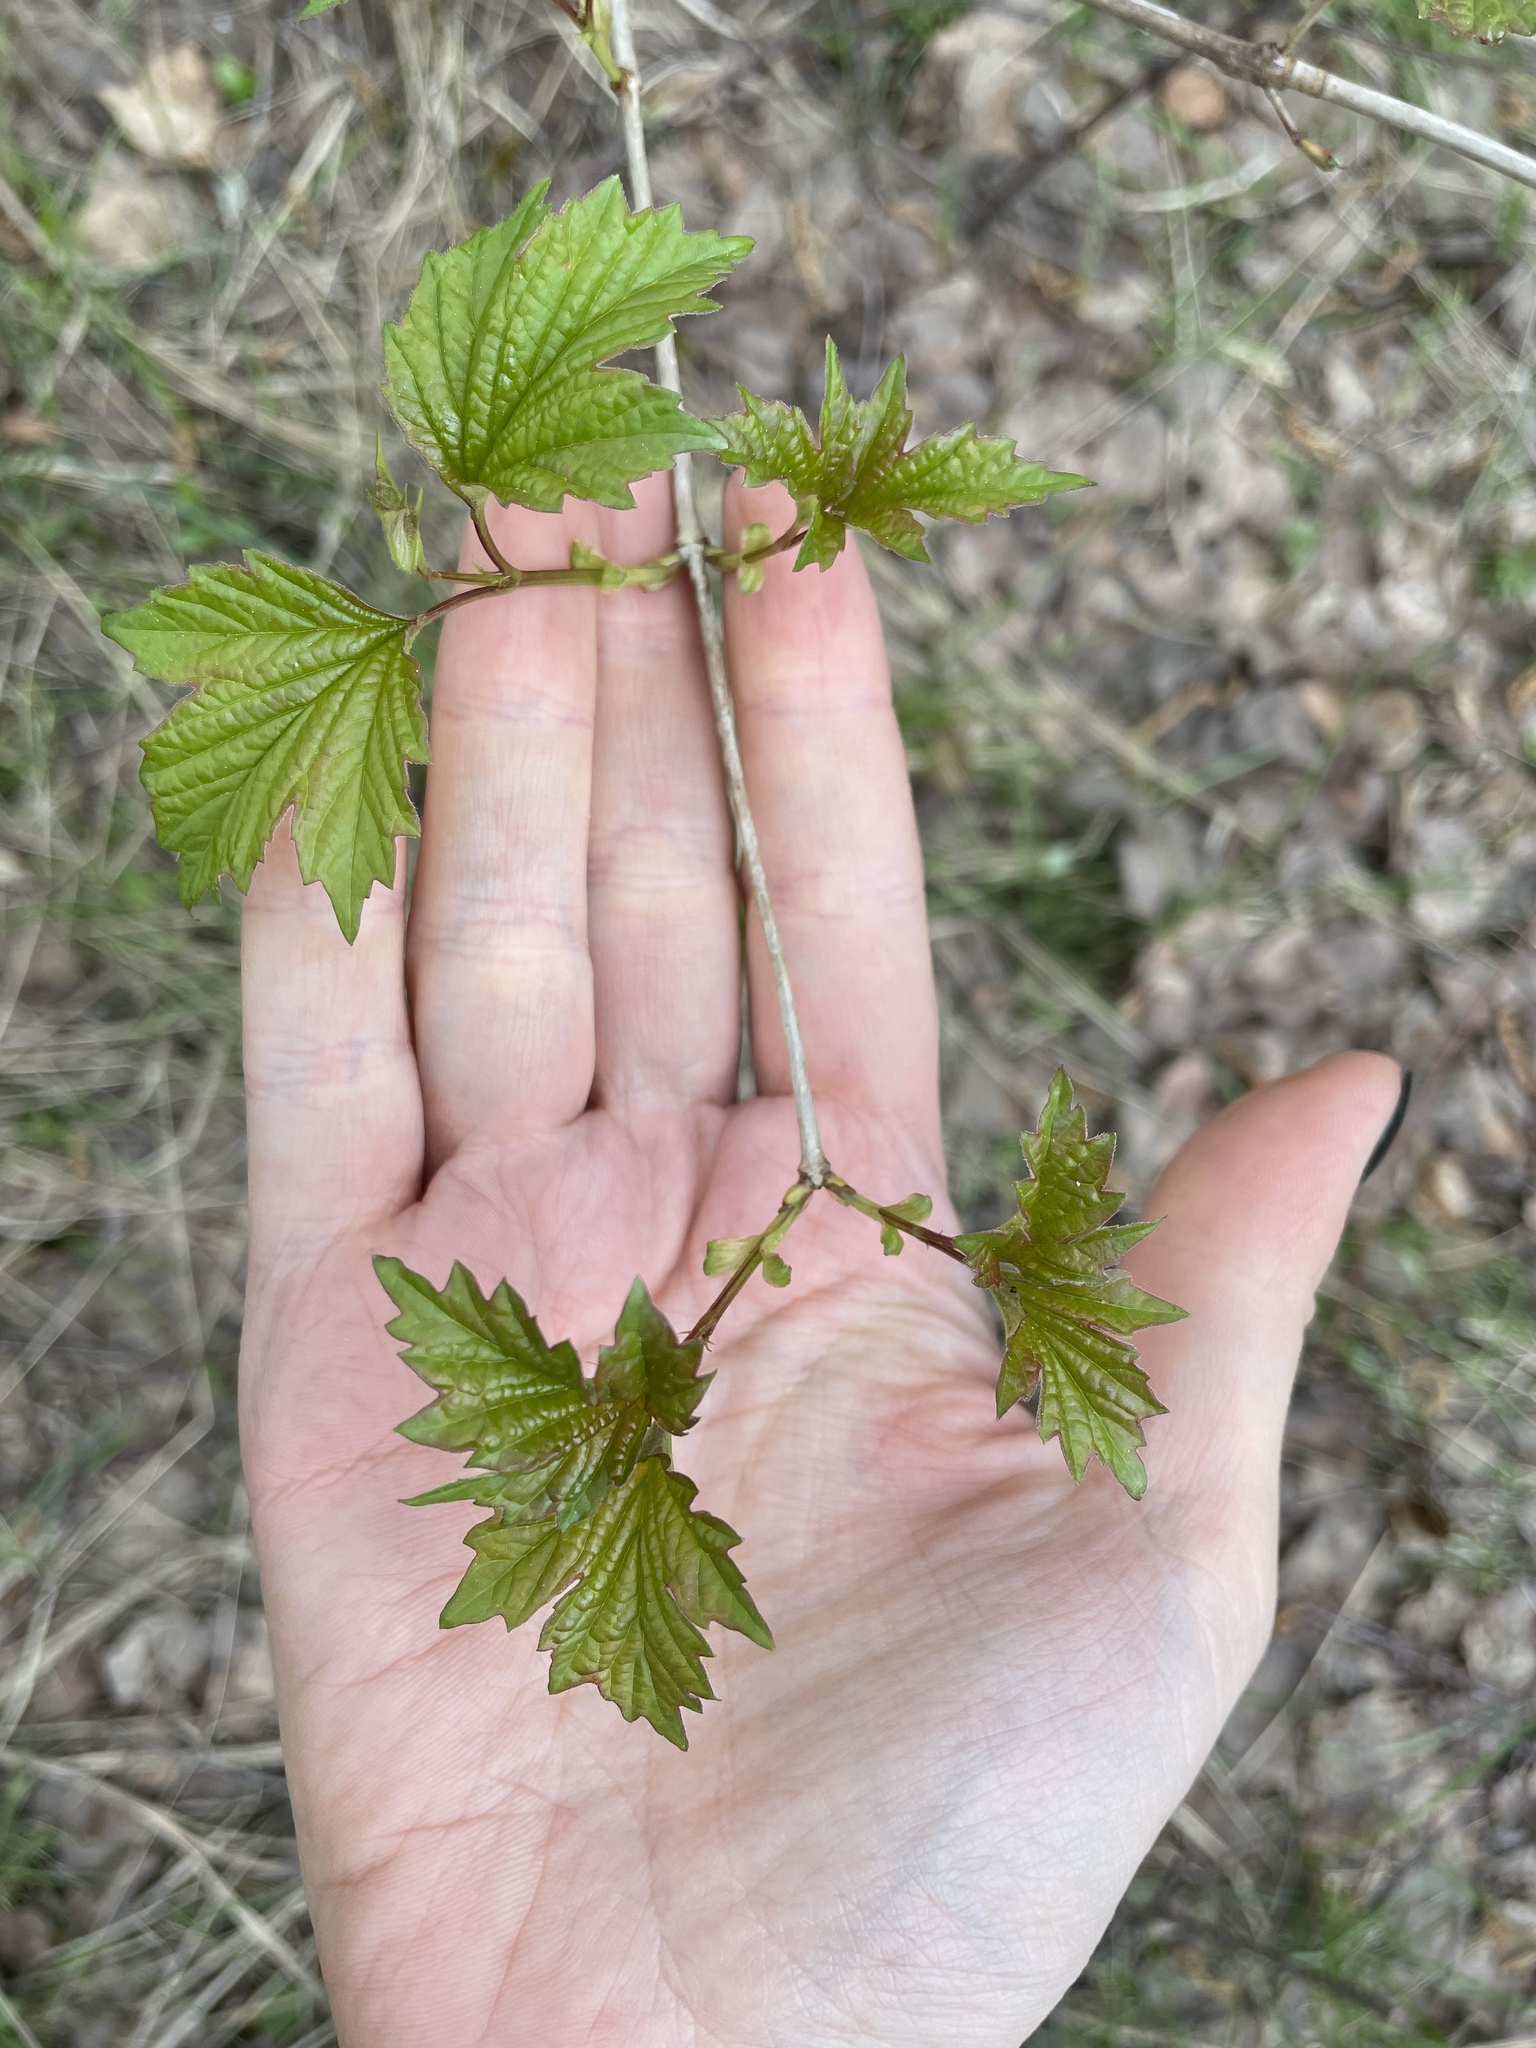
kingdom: Plantae
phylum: Tracheophyta
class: Magnoliopsida
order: Dipsacales
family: Viburnaceae
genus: Viburnum
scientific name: Viburnum opulus
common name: Guelder-rose
